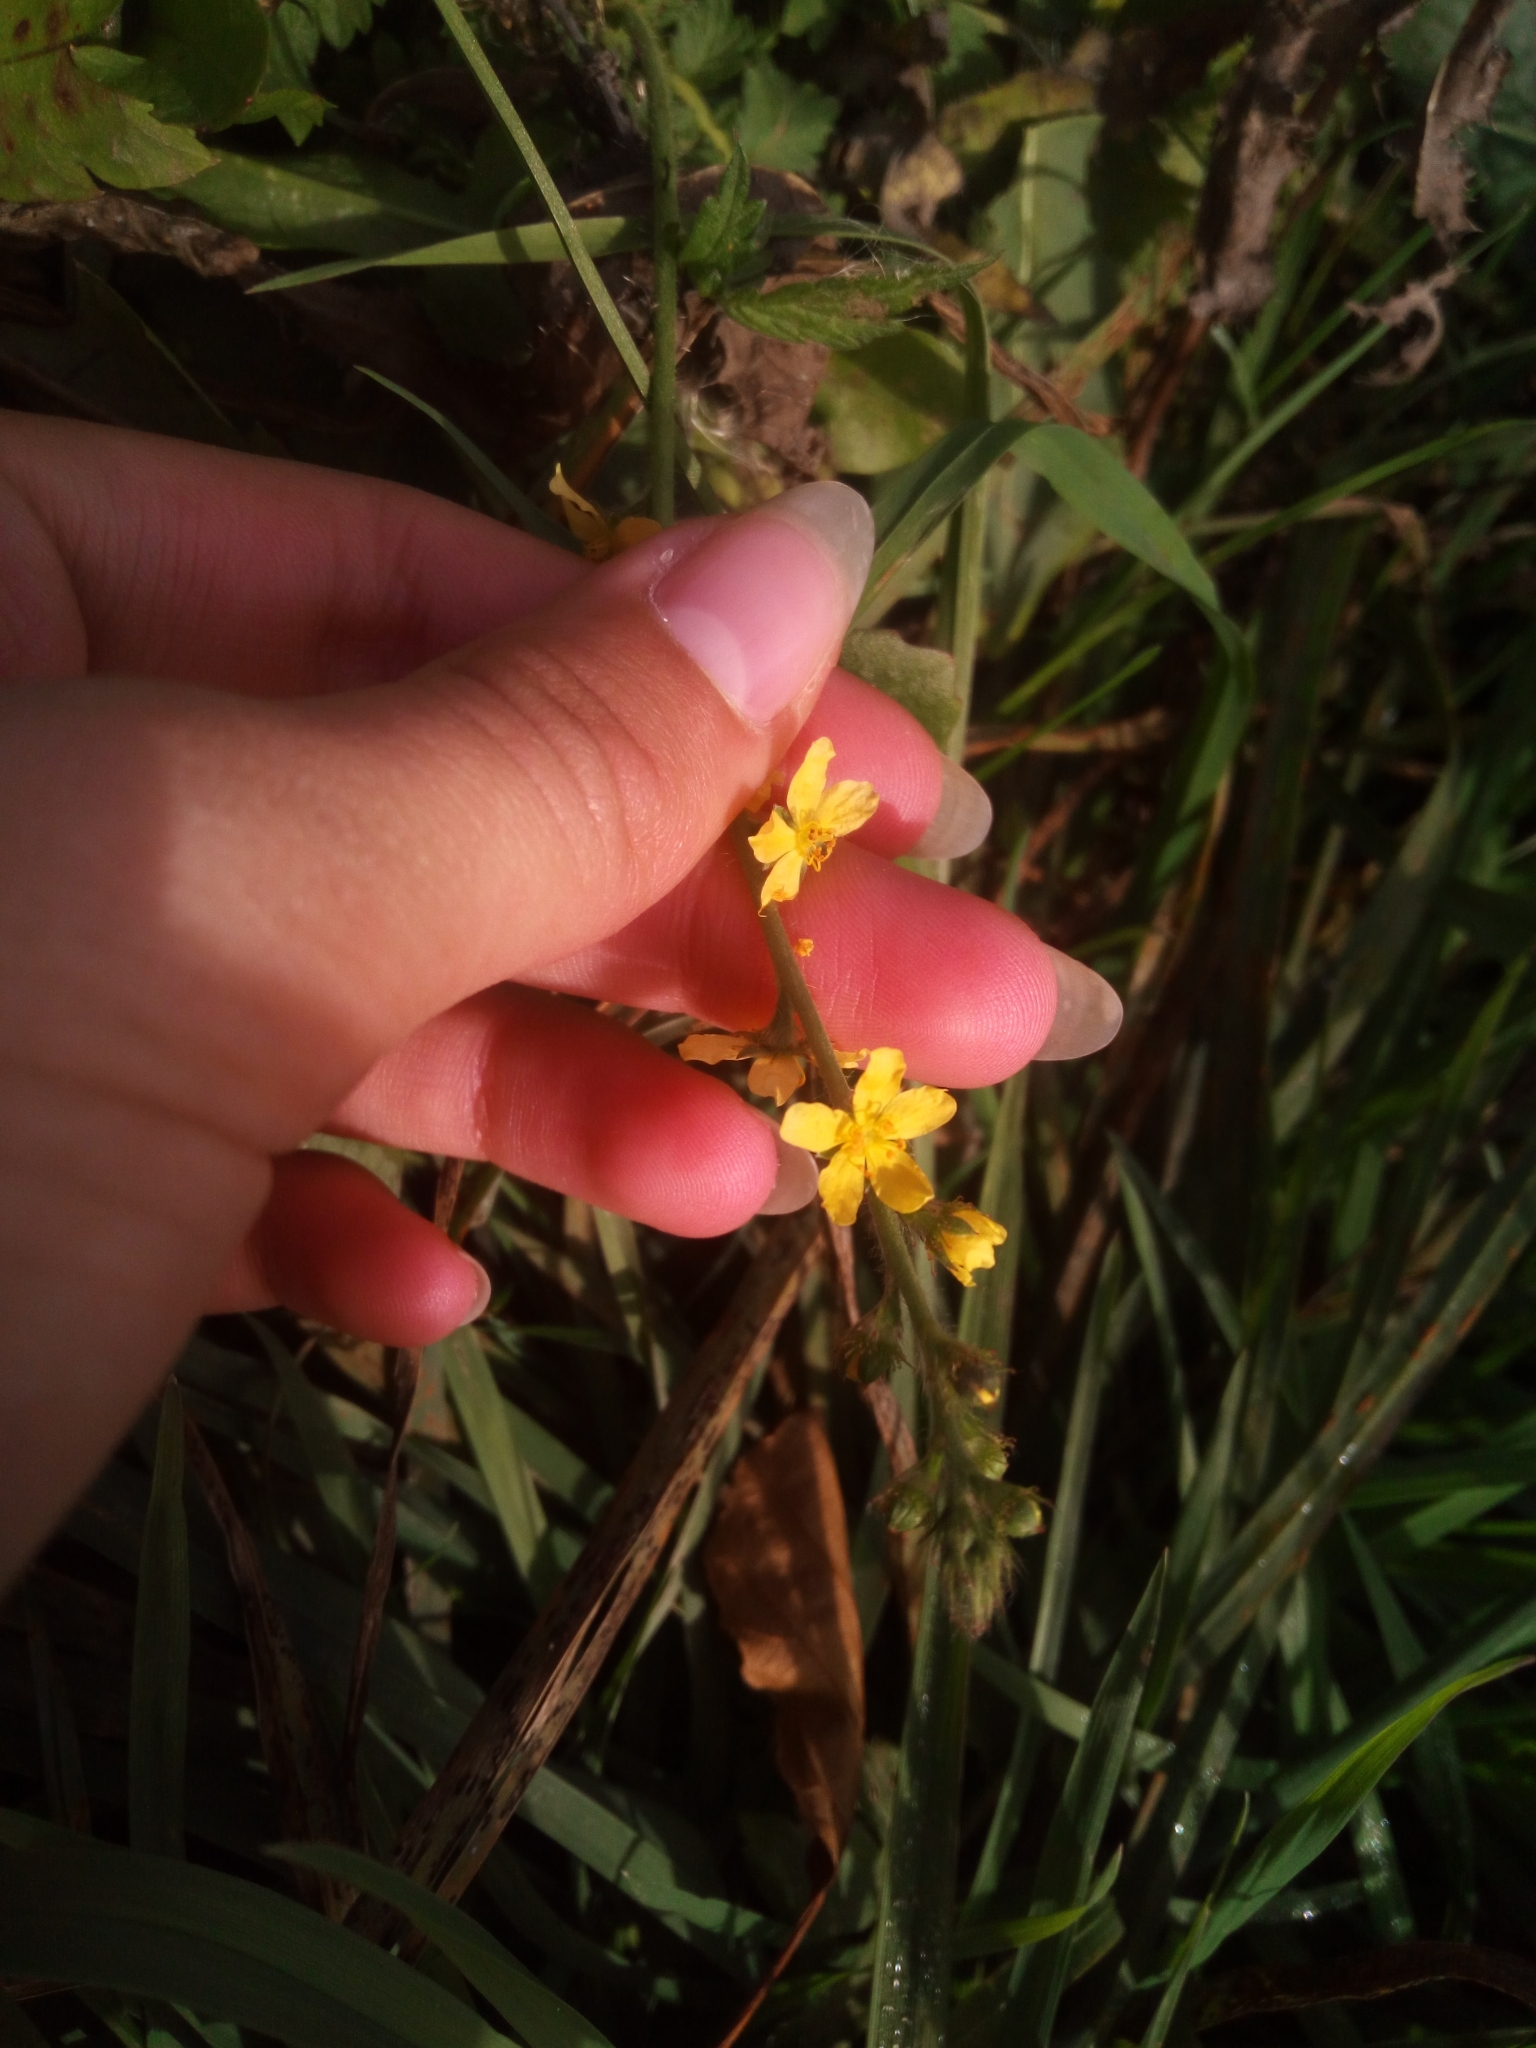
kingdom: Plantae
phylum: Tracheophyta
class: Magnoliopsida
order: Rosales
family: Rosaceae
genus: Agrimonia
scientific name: Agrimonia eupatoria
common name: Agrimony
